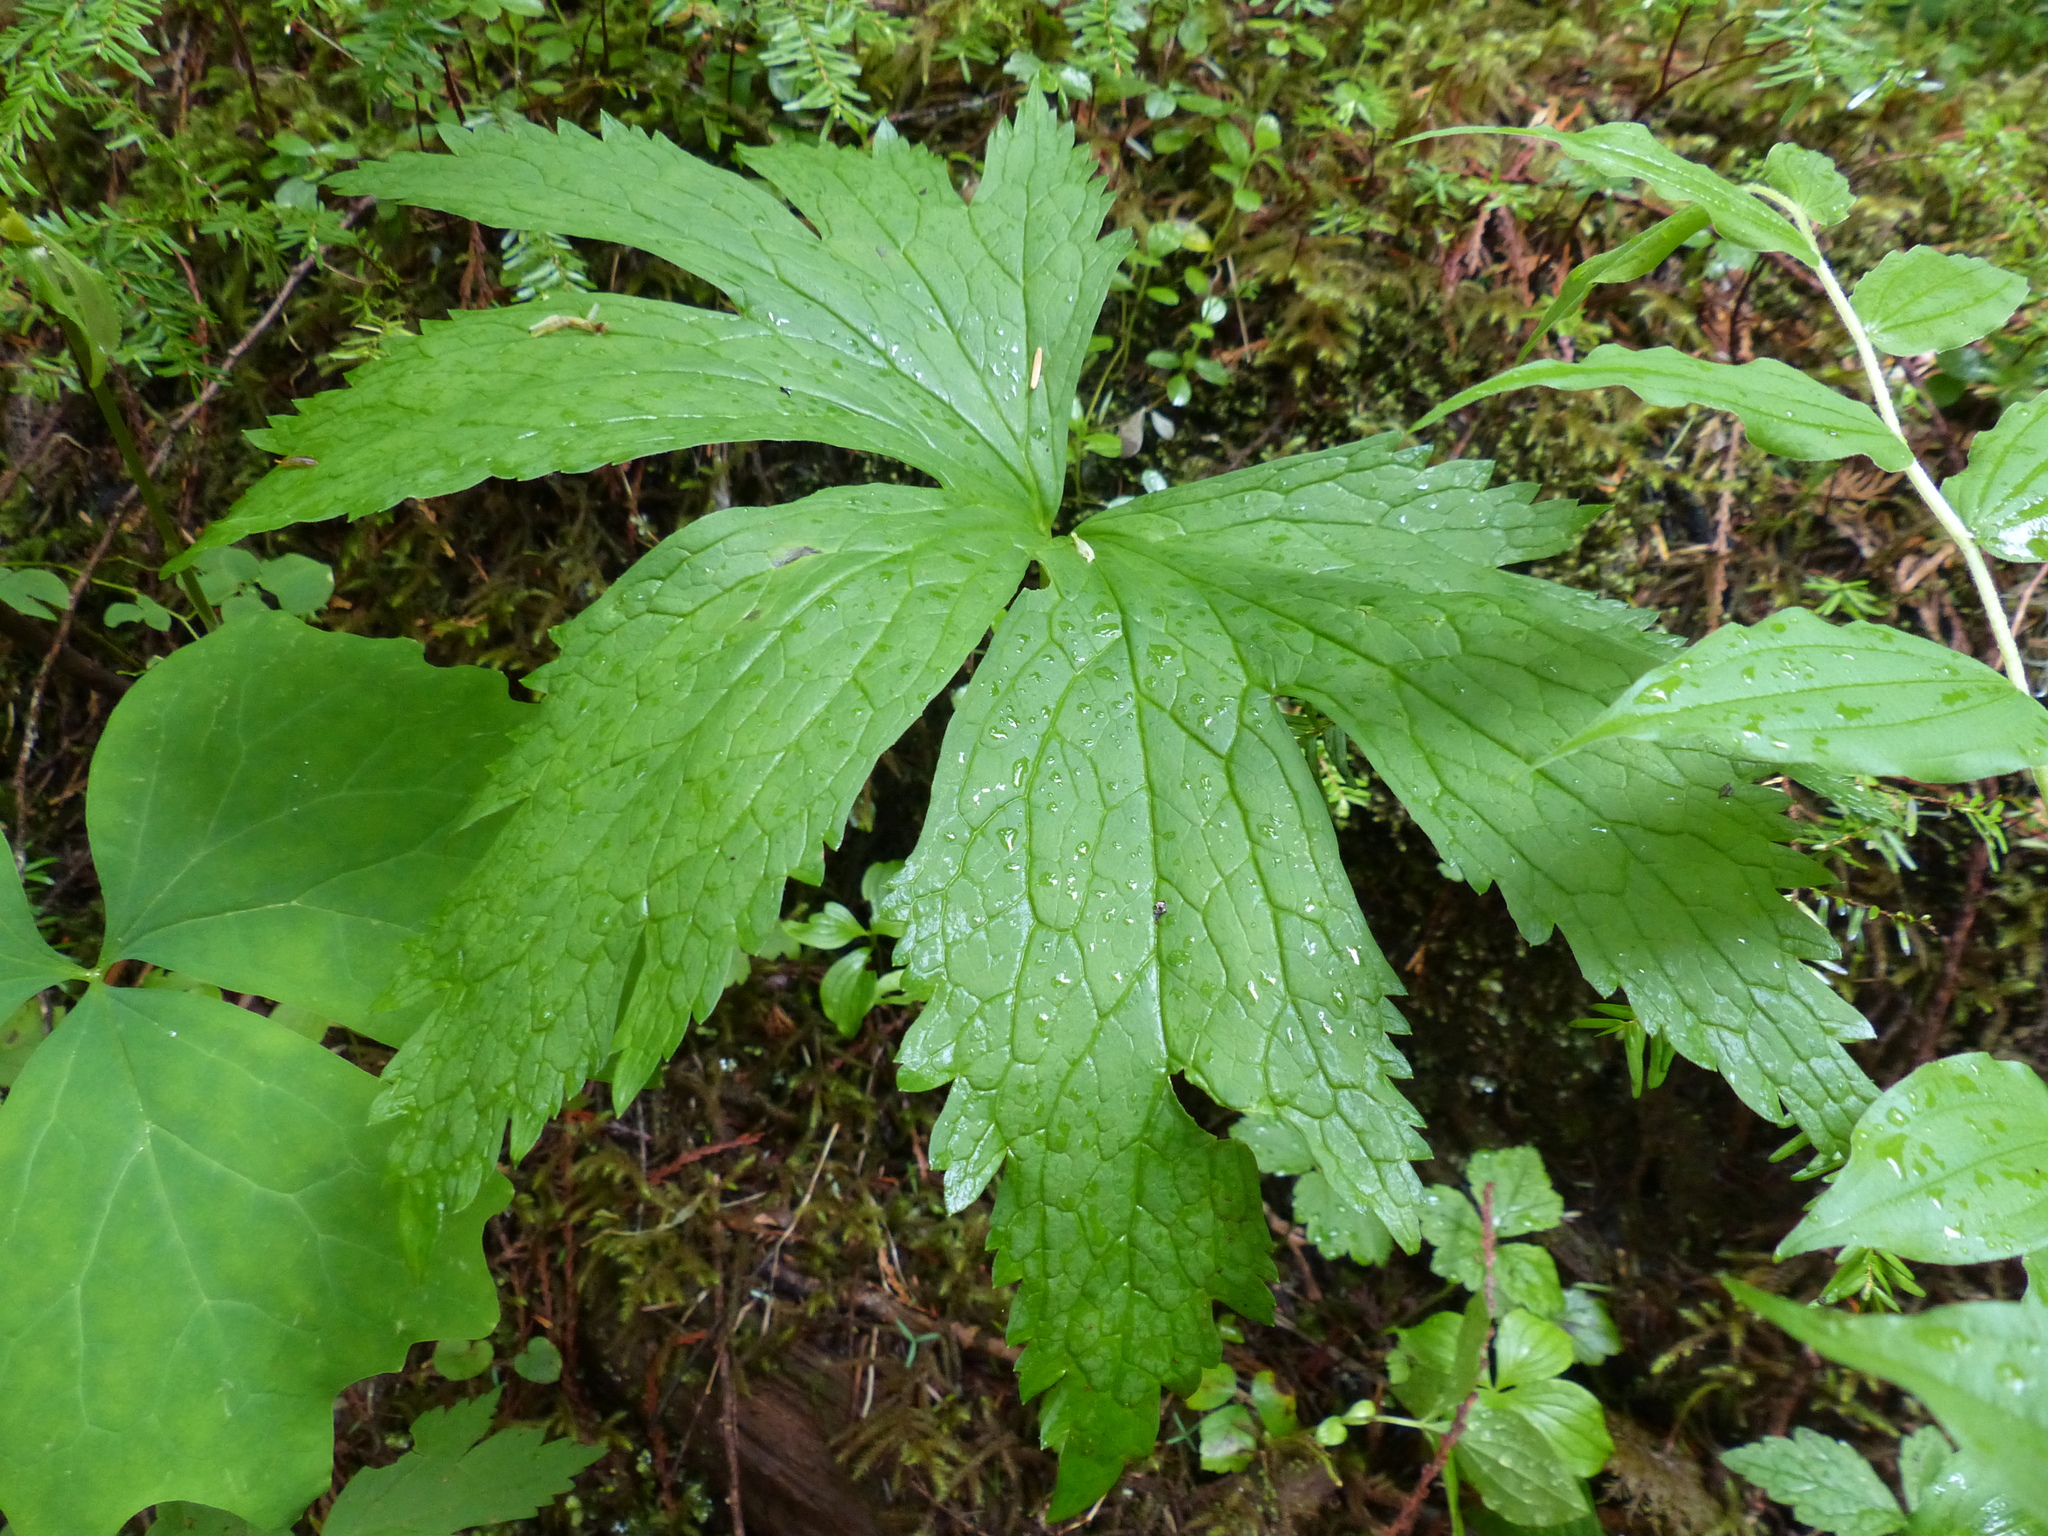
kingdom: Plantae
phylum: Tracheophyta
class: Magnoliopsida
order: Ranunculales
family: Ranunculaceae
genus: Trautvetteria
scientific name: Trautvetteria carolinensis
